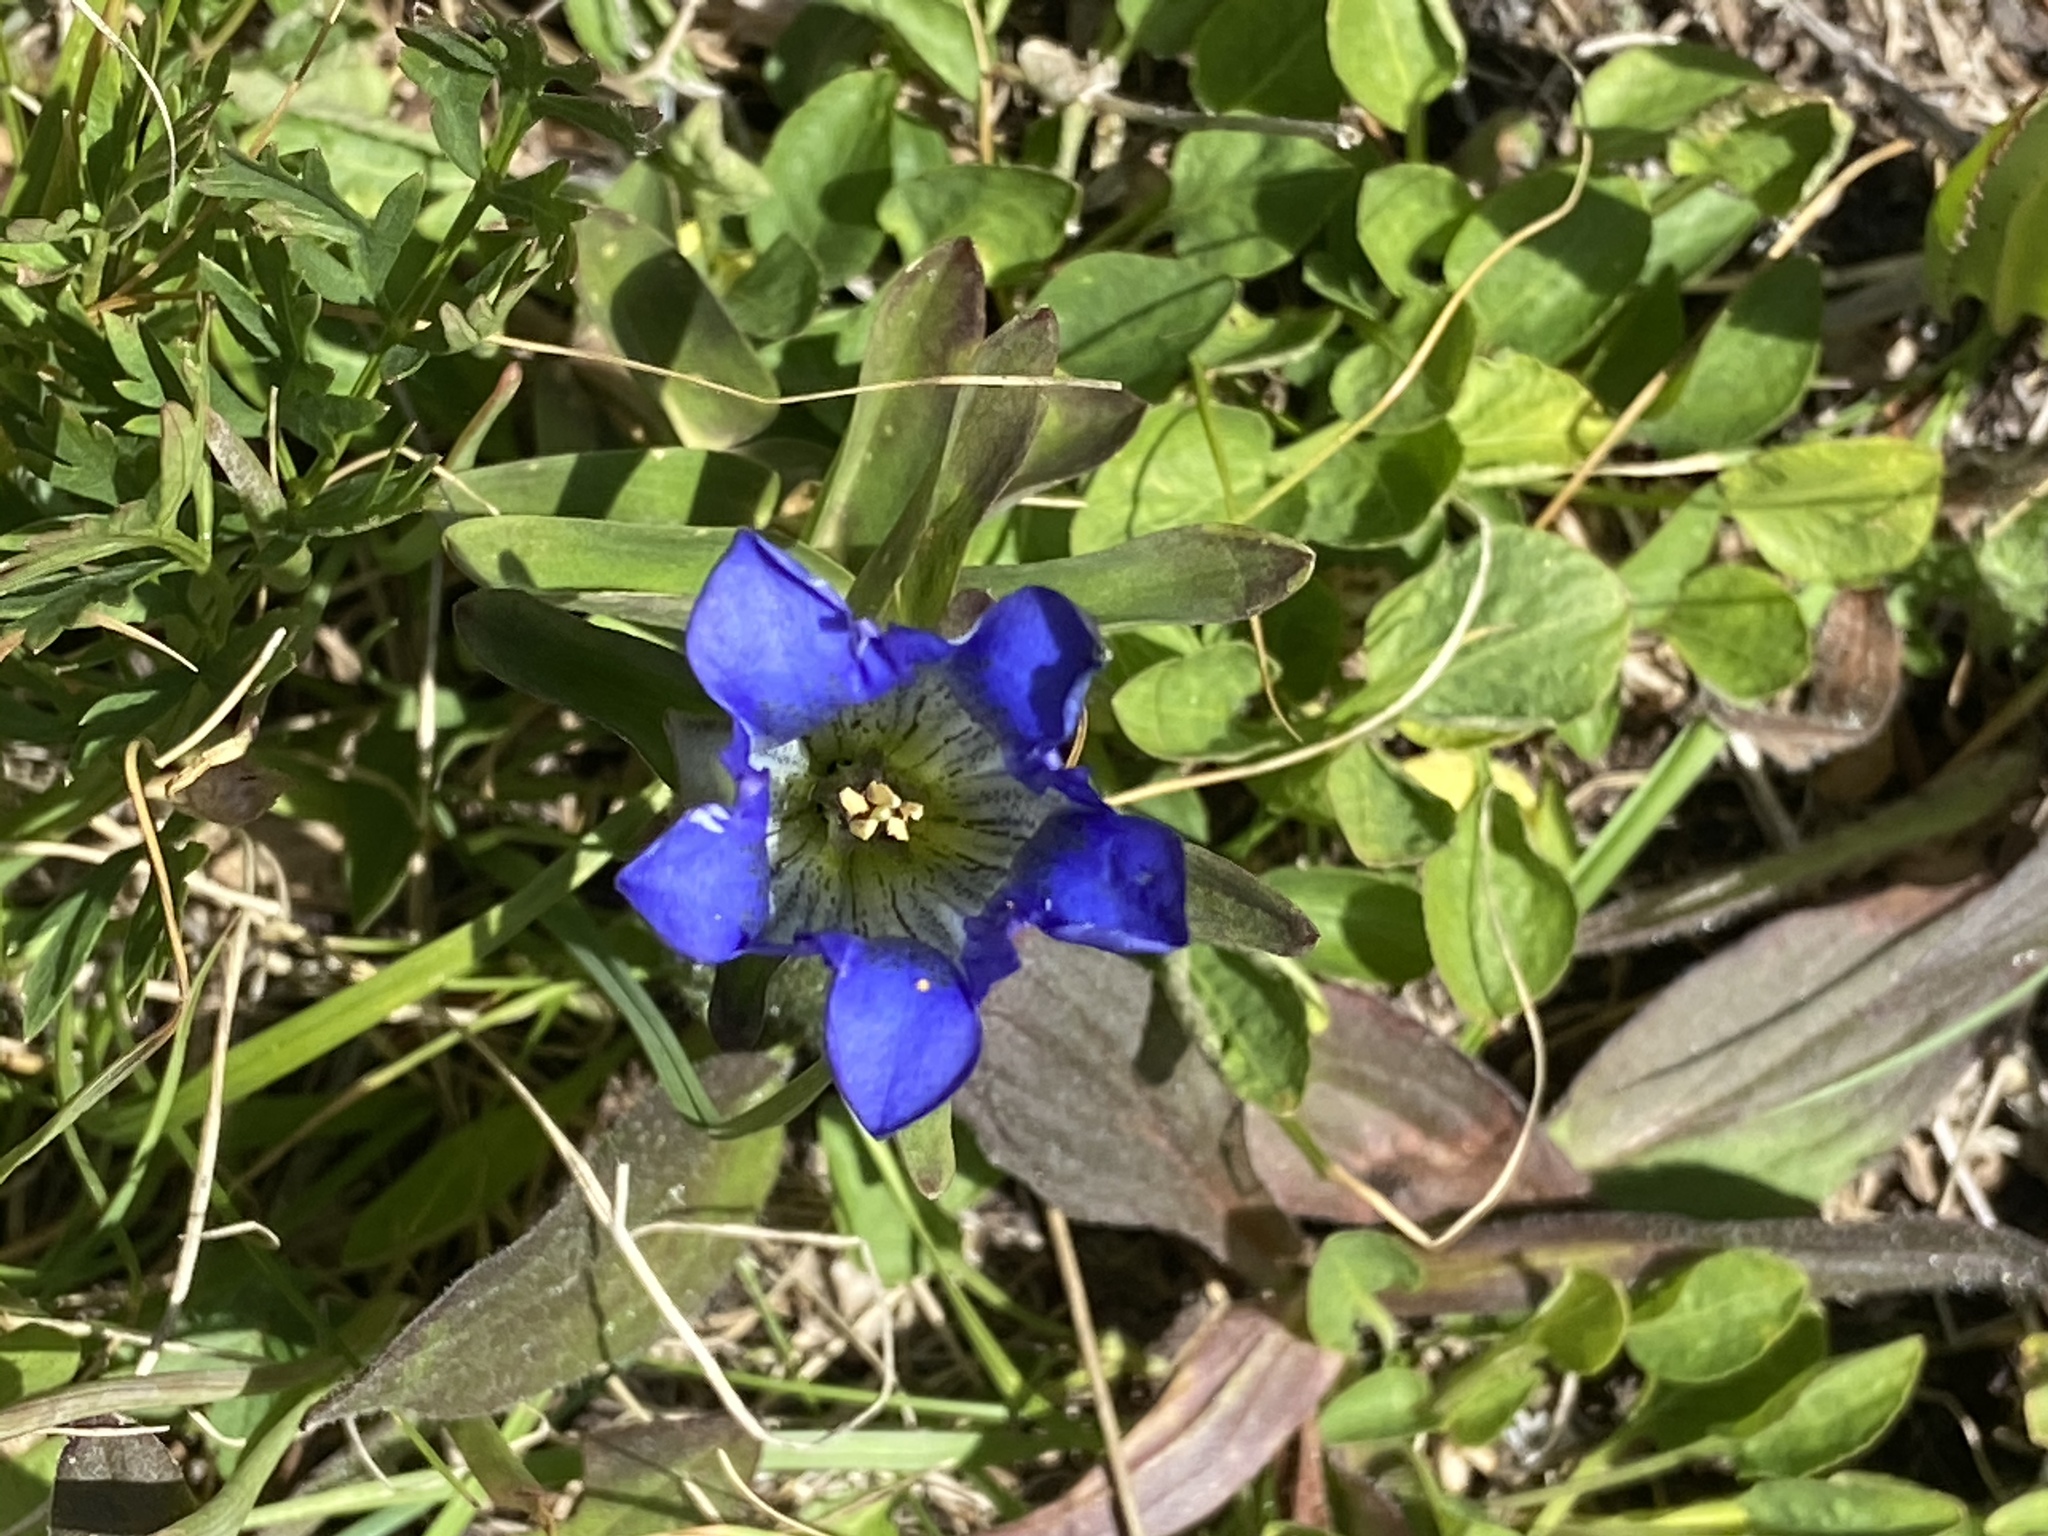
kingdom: Plantae
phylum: Tracheophyta
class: Magnoliopsida
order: Gentianales
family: Gentianaceae
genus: Gentiana
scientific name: Gentiana parryi
